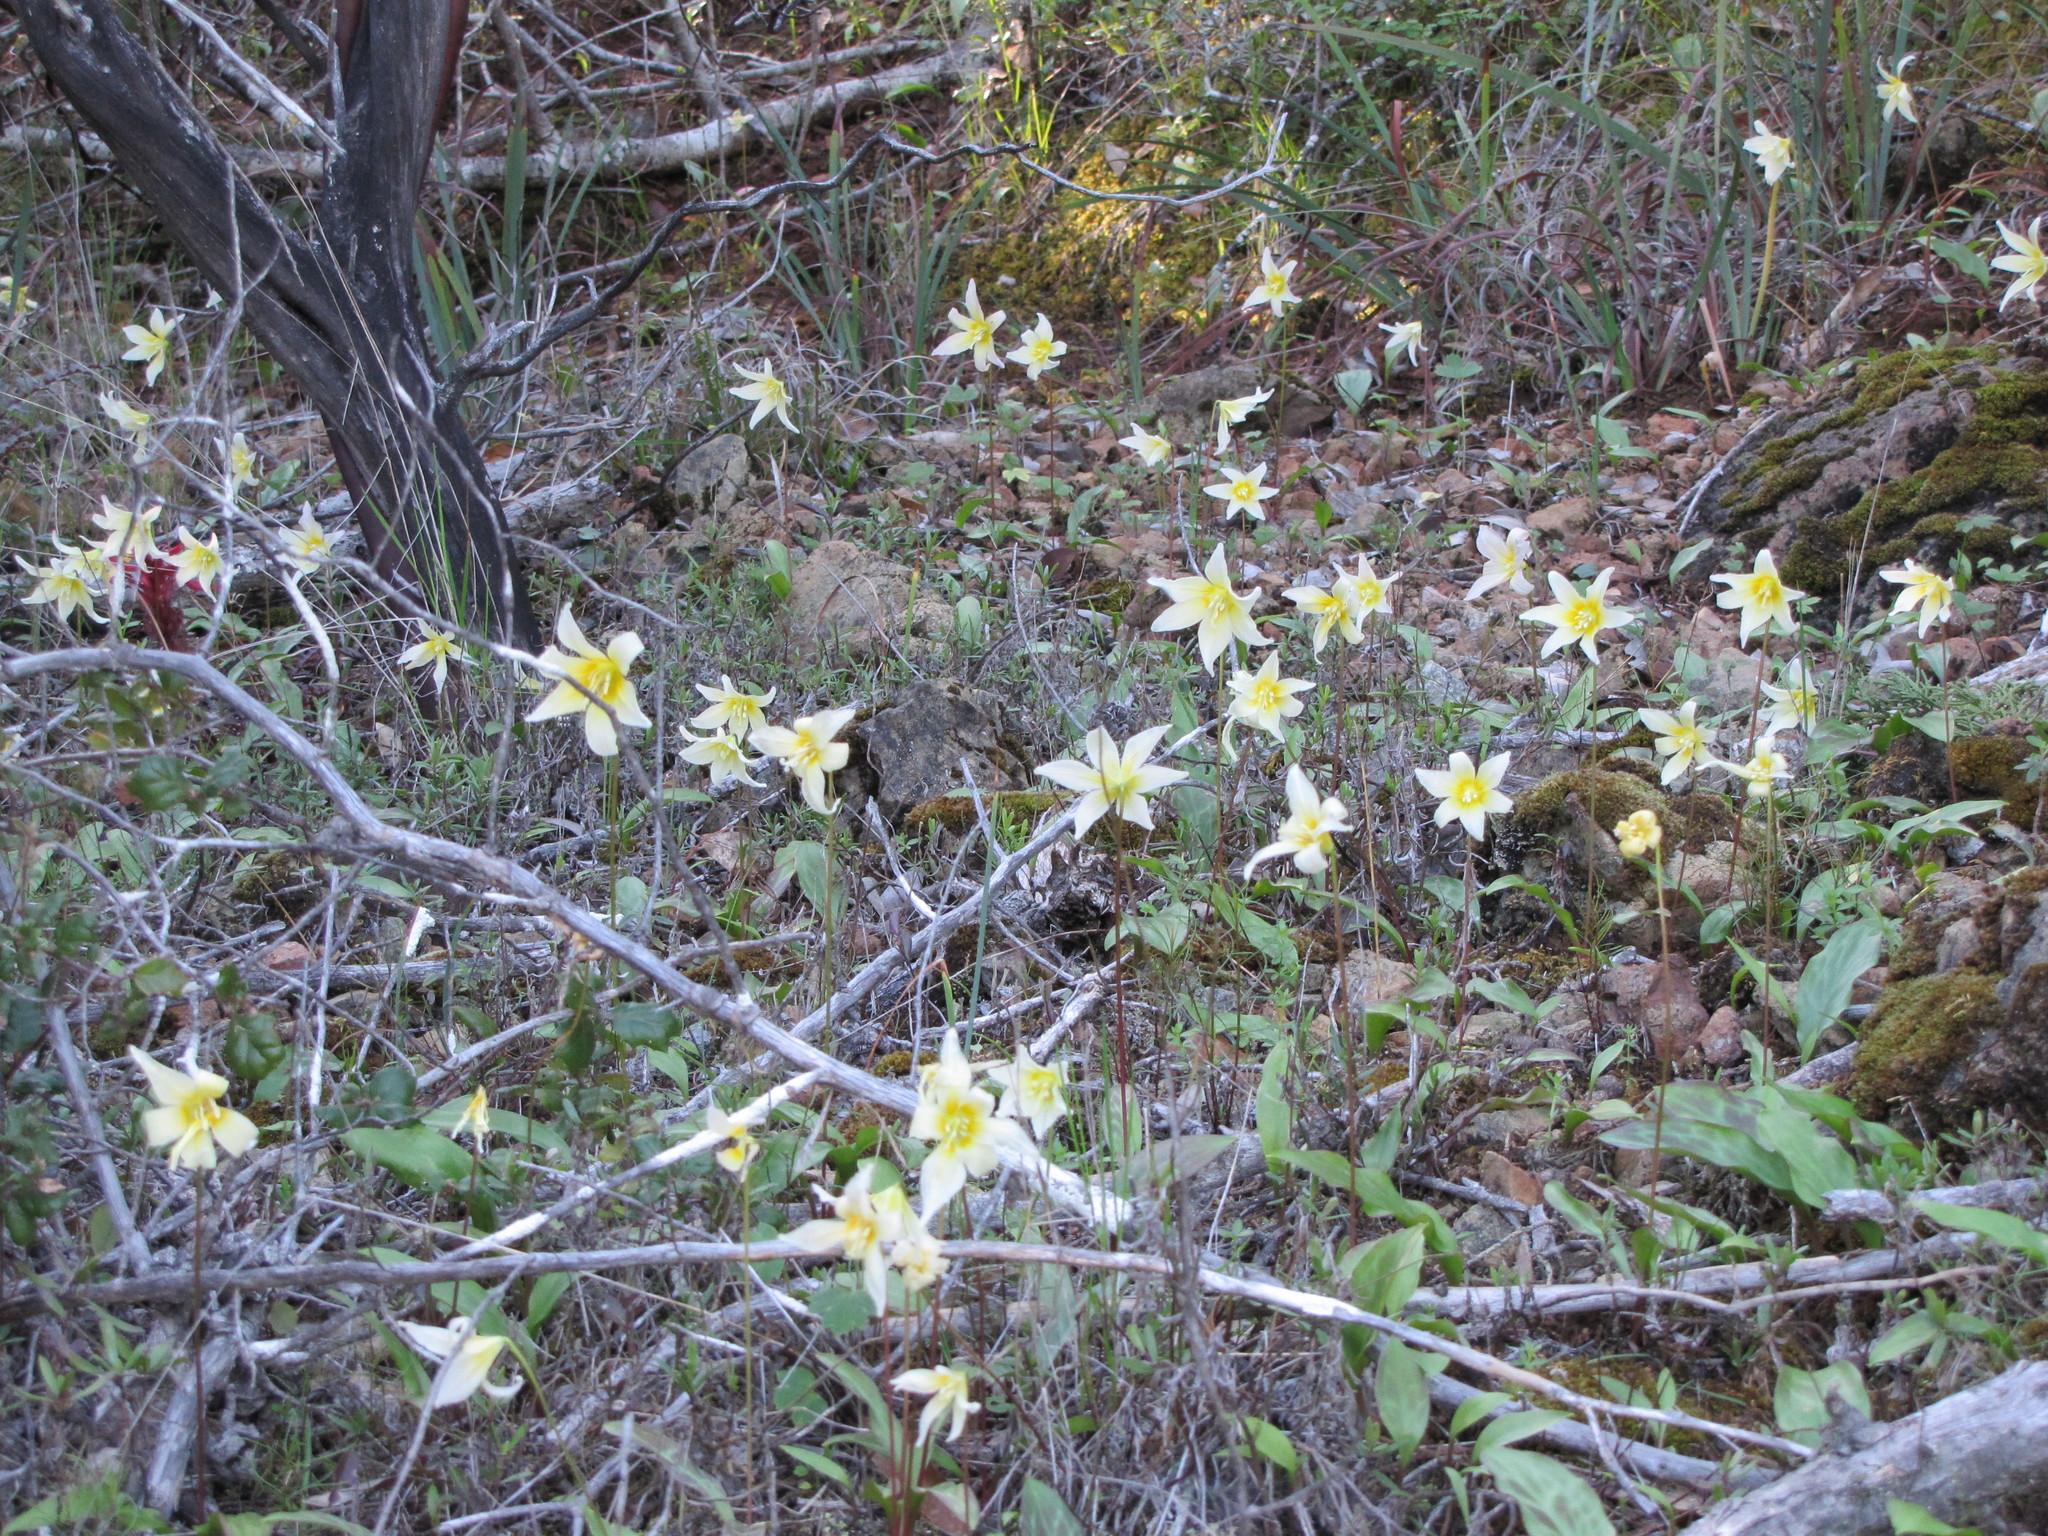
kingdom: Plantae
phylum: Tracheophyta
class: Liliopsida
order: Liliales
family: Liliaceae
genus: Erythronium
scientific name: Erythronium californicum
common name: Fawn-lily
